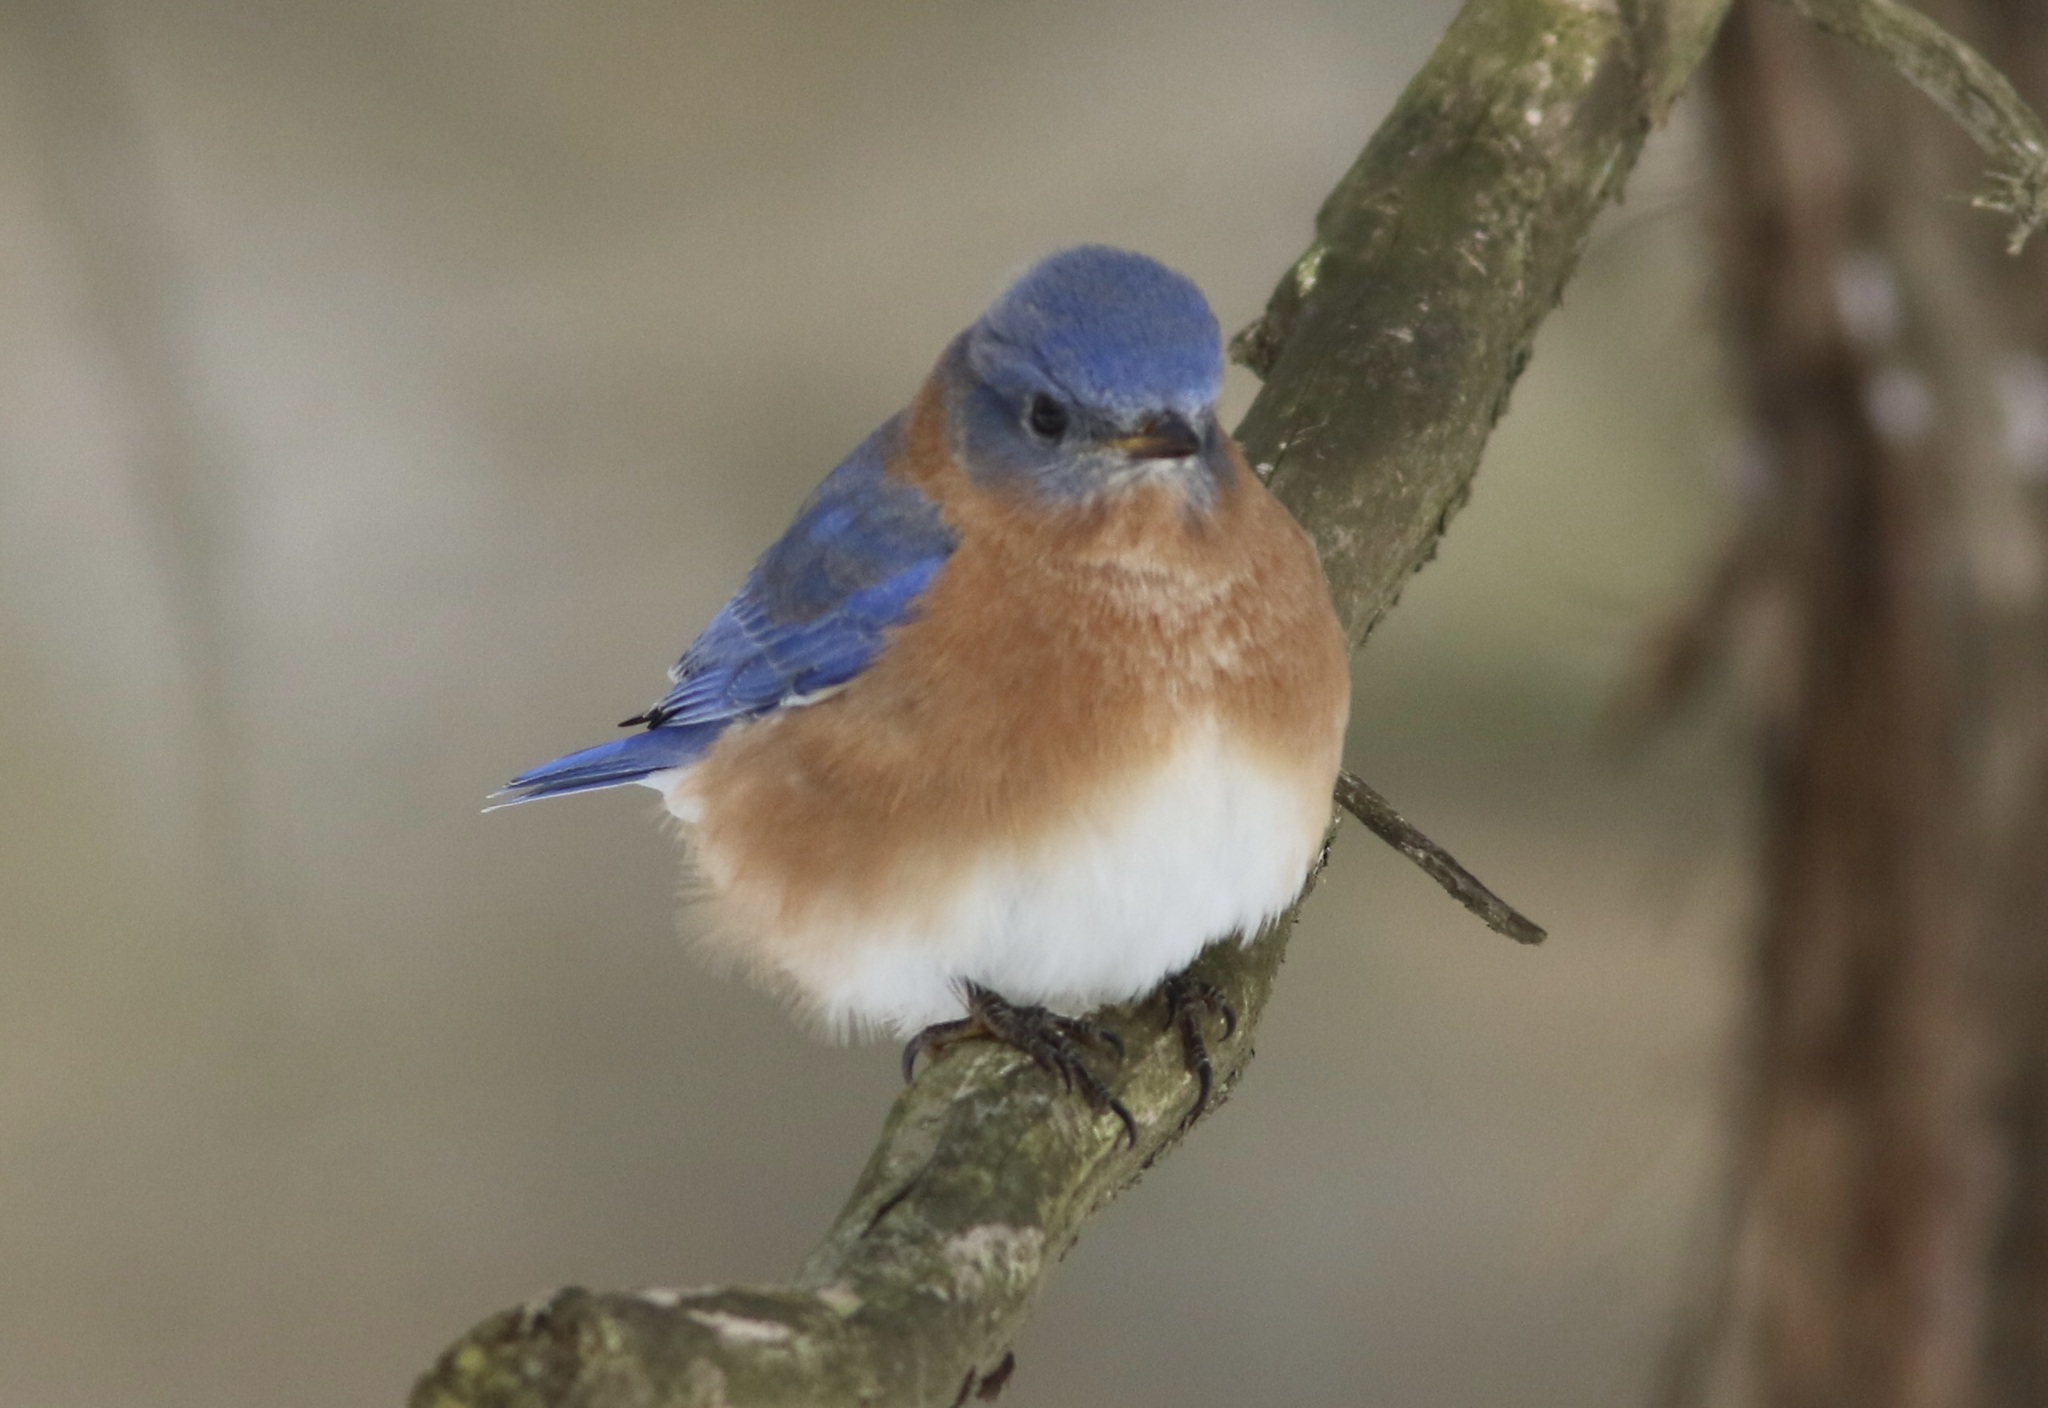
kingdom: Animalia
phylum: Chordata
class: Aves
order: Passeriformes
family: Turdidae
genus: Sialia
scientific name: Sialia sialis
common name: Eastern bluebird
